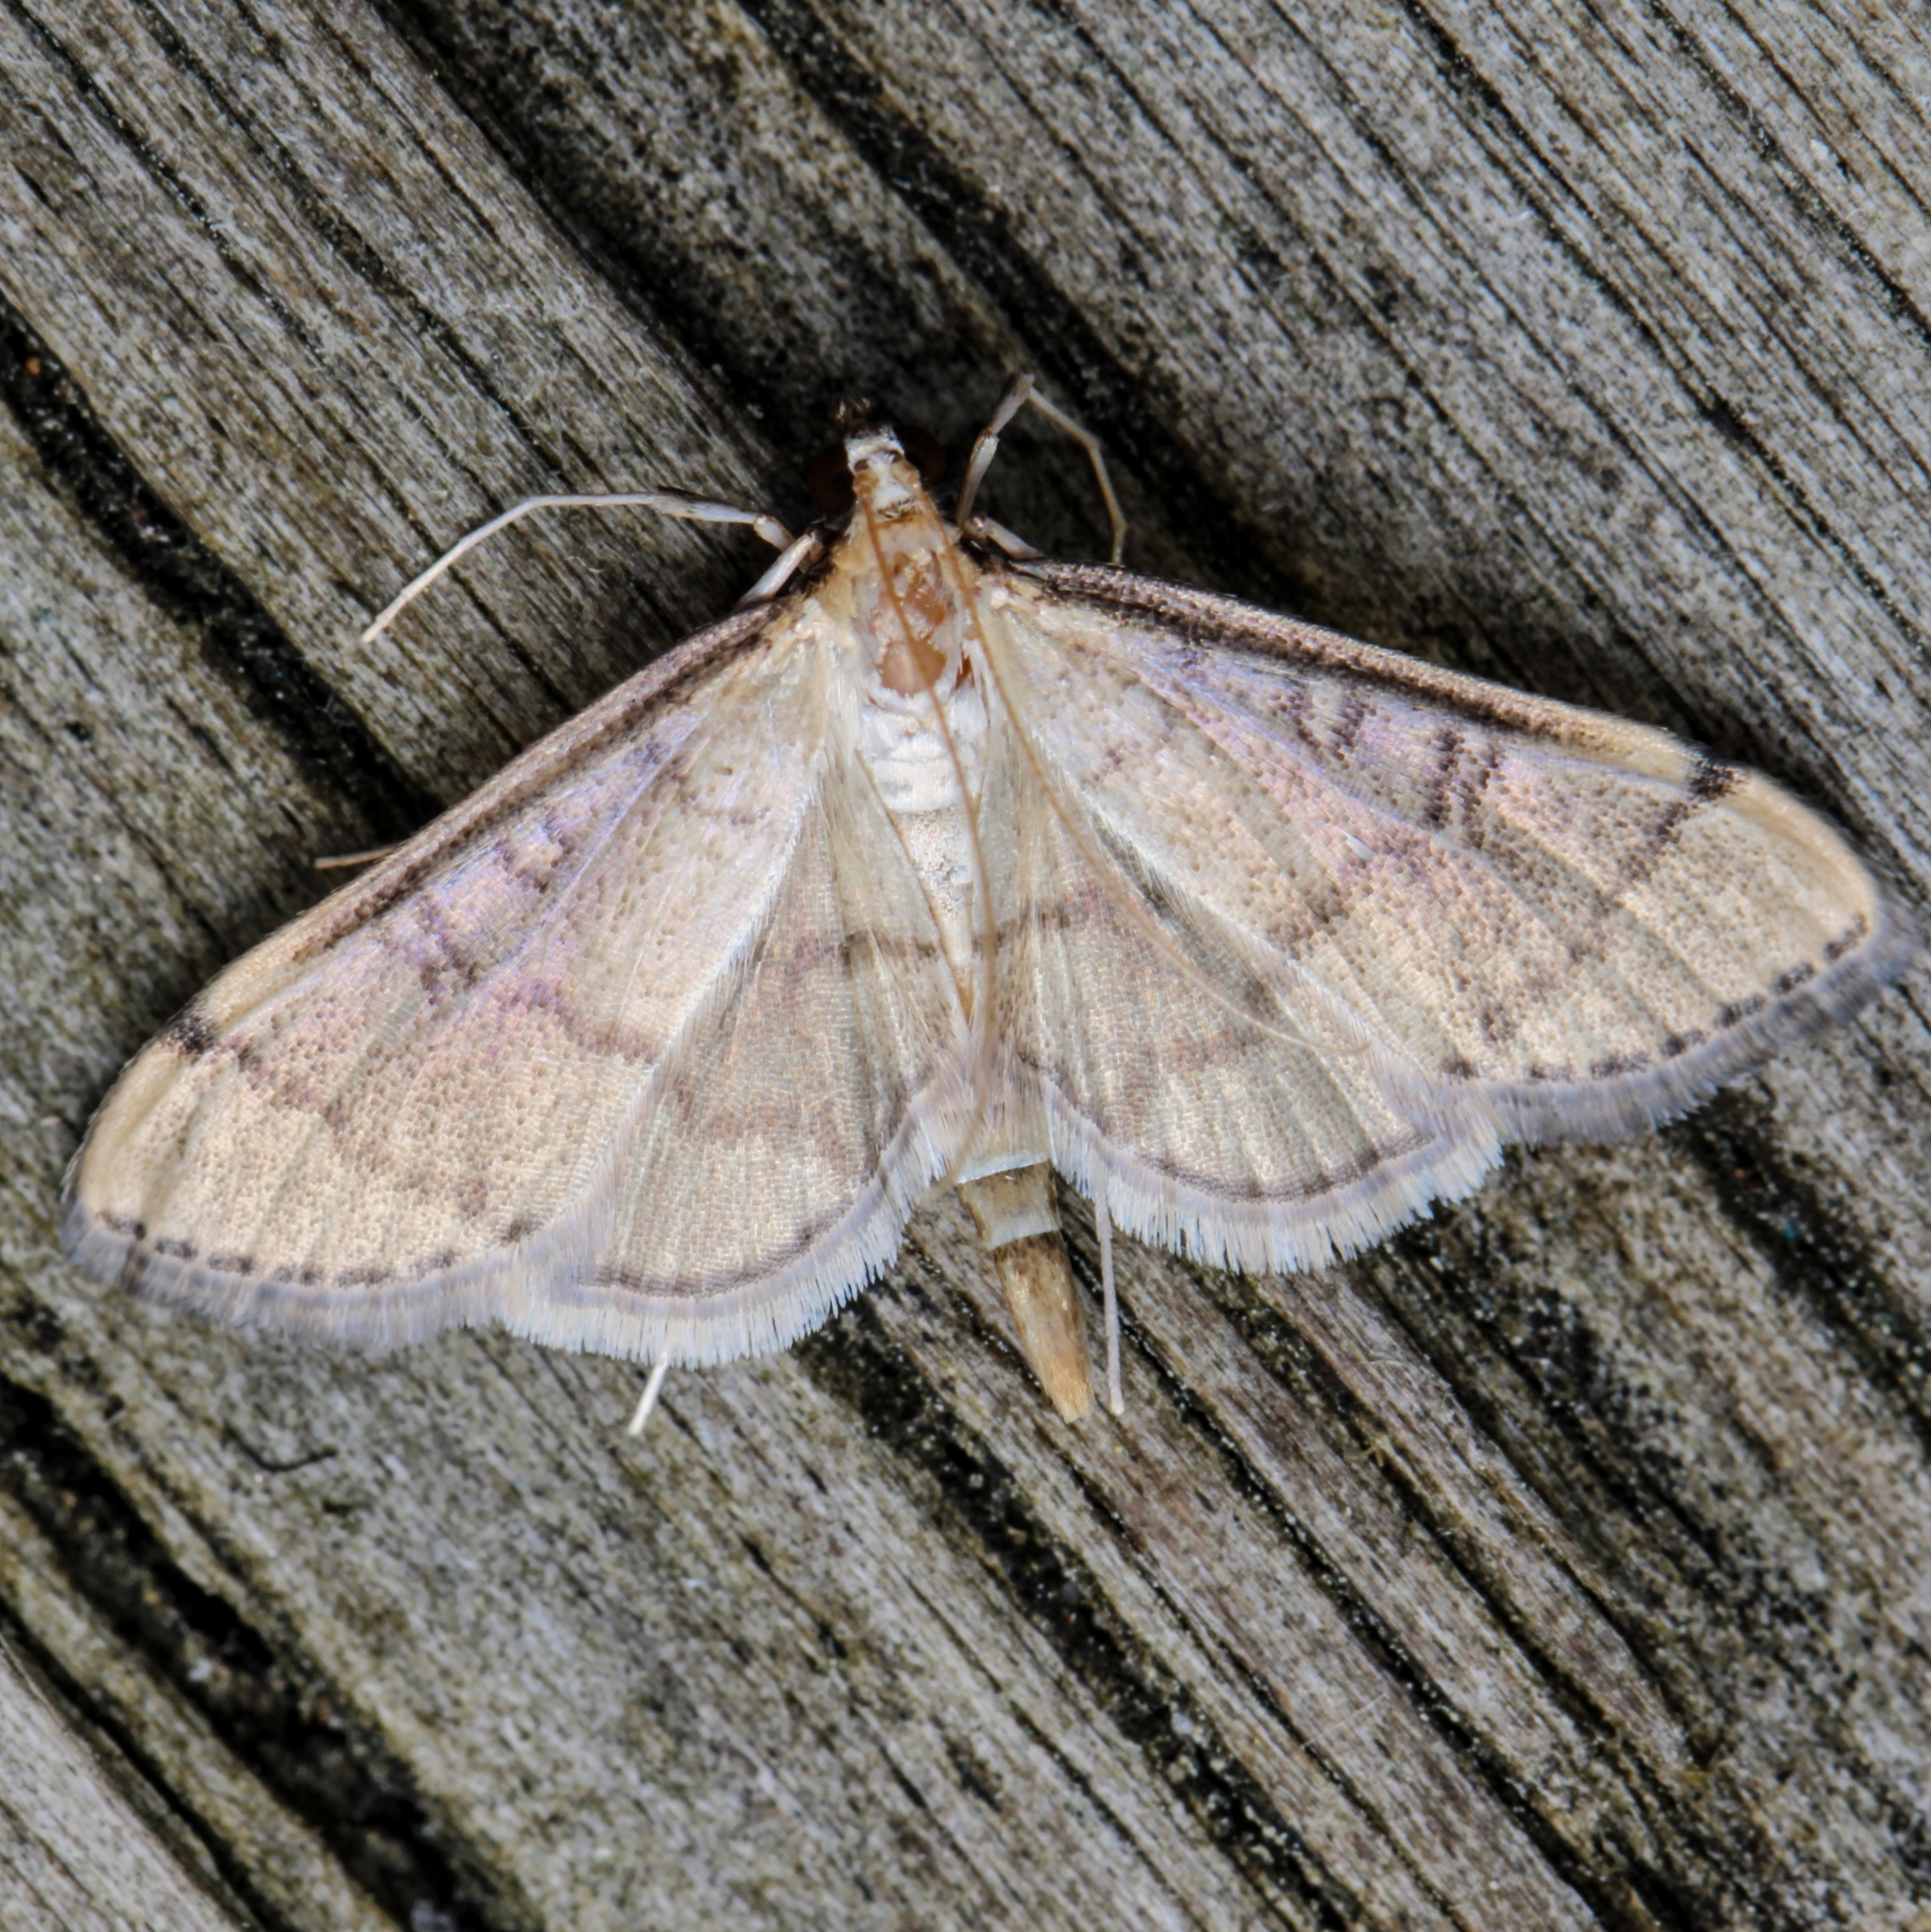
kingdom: Animalia
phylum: Arthropoda
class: Insecta
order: Lepidoptera
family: Crambidae
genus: Lamprosema
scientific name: Lamprosema Blepharomastix ranalis
